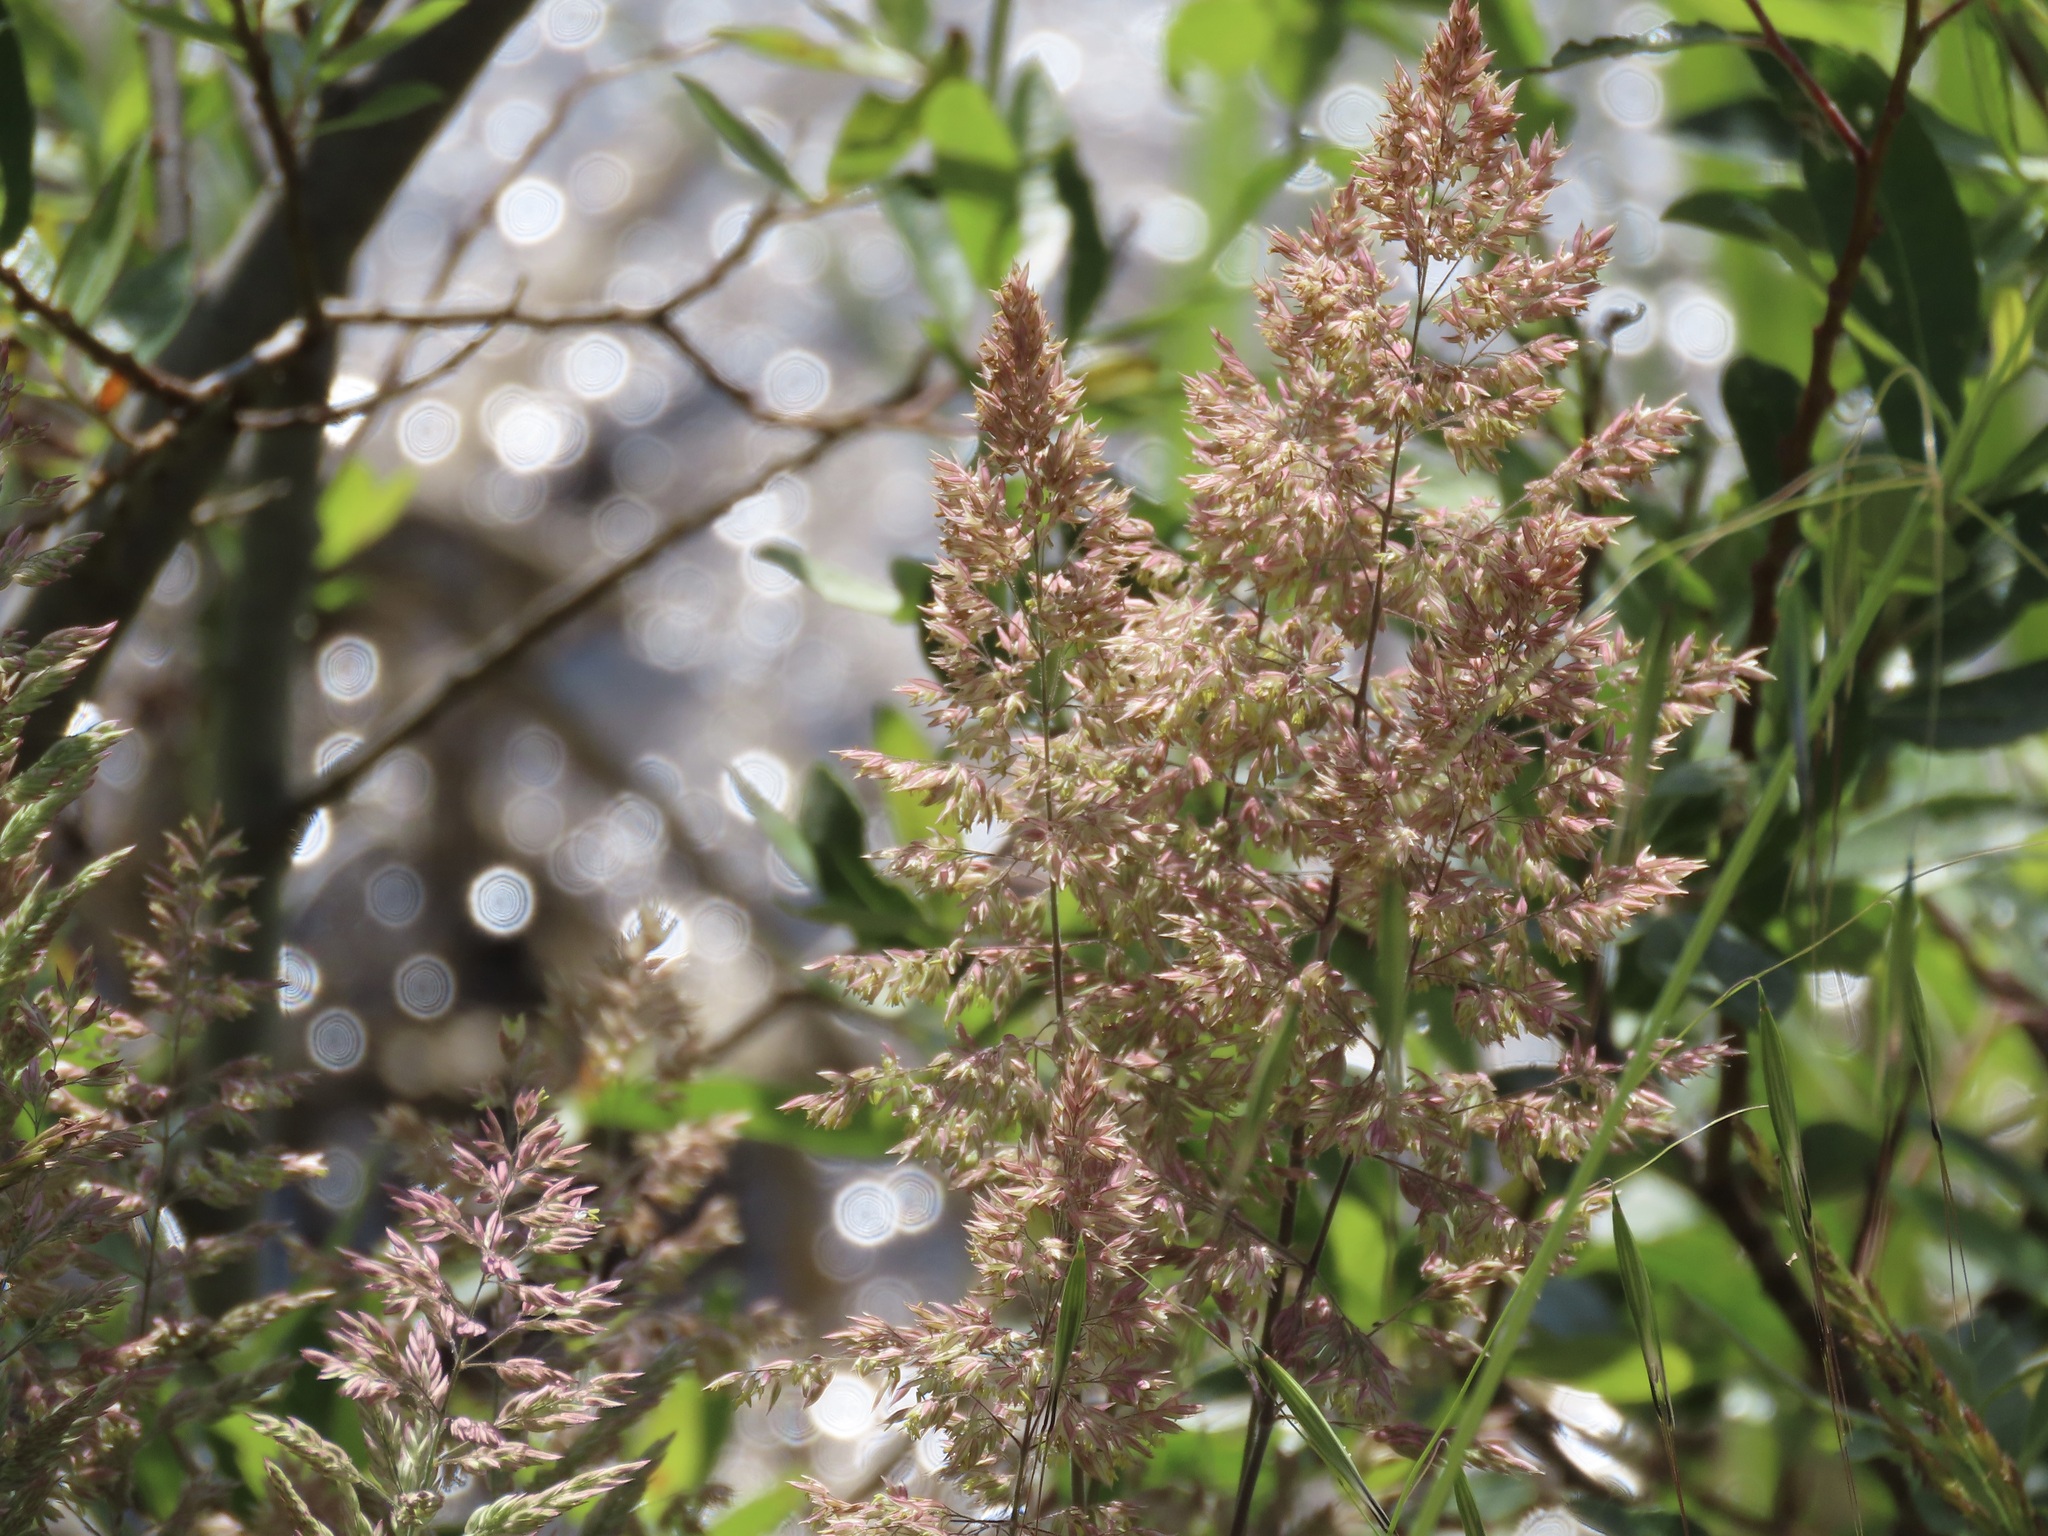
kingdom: Plantae
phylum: Tracheophyta
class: Liliopsida
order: Poales
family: Poaceae
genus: Holcus
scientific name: Holcus lanatus
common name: Yorkshire-fog
